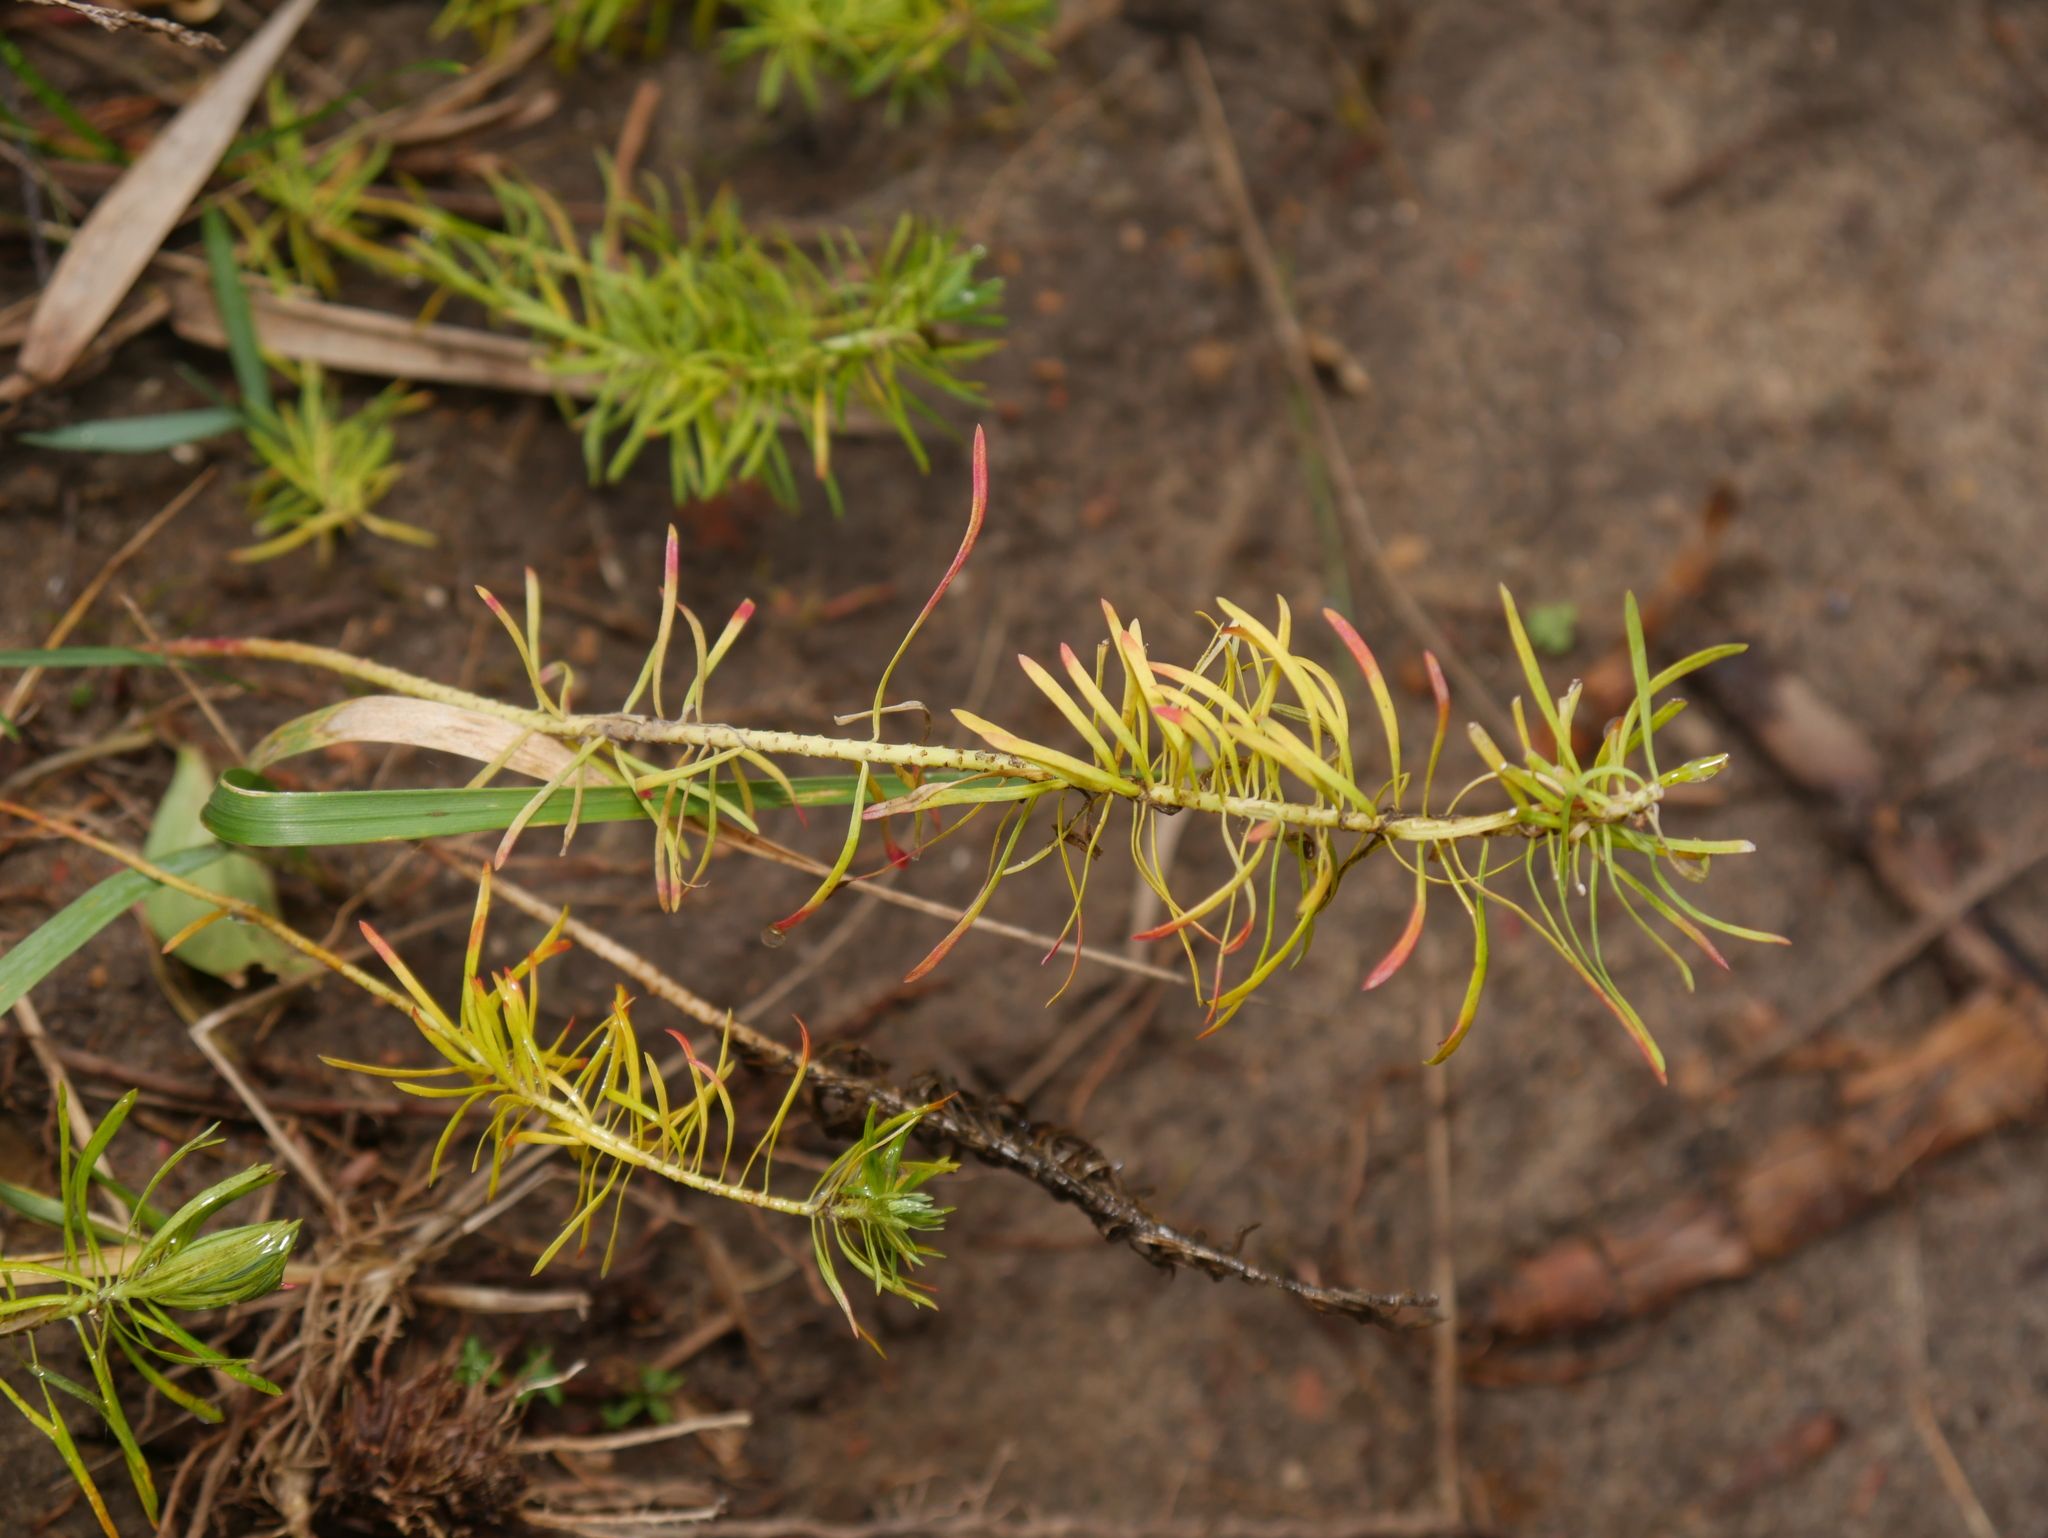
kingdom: Plantae
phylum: Tracheophyta
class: Magnoliopsida
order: Malpighiales
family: Euphorbiaceae
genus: Euphorbia
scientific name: Euphorbia cyparissias
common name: Cypress spurge
